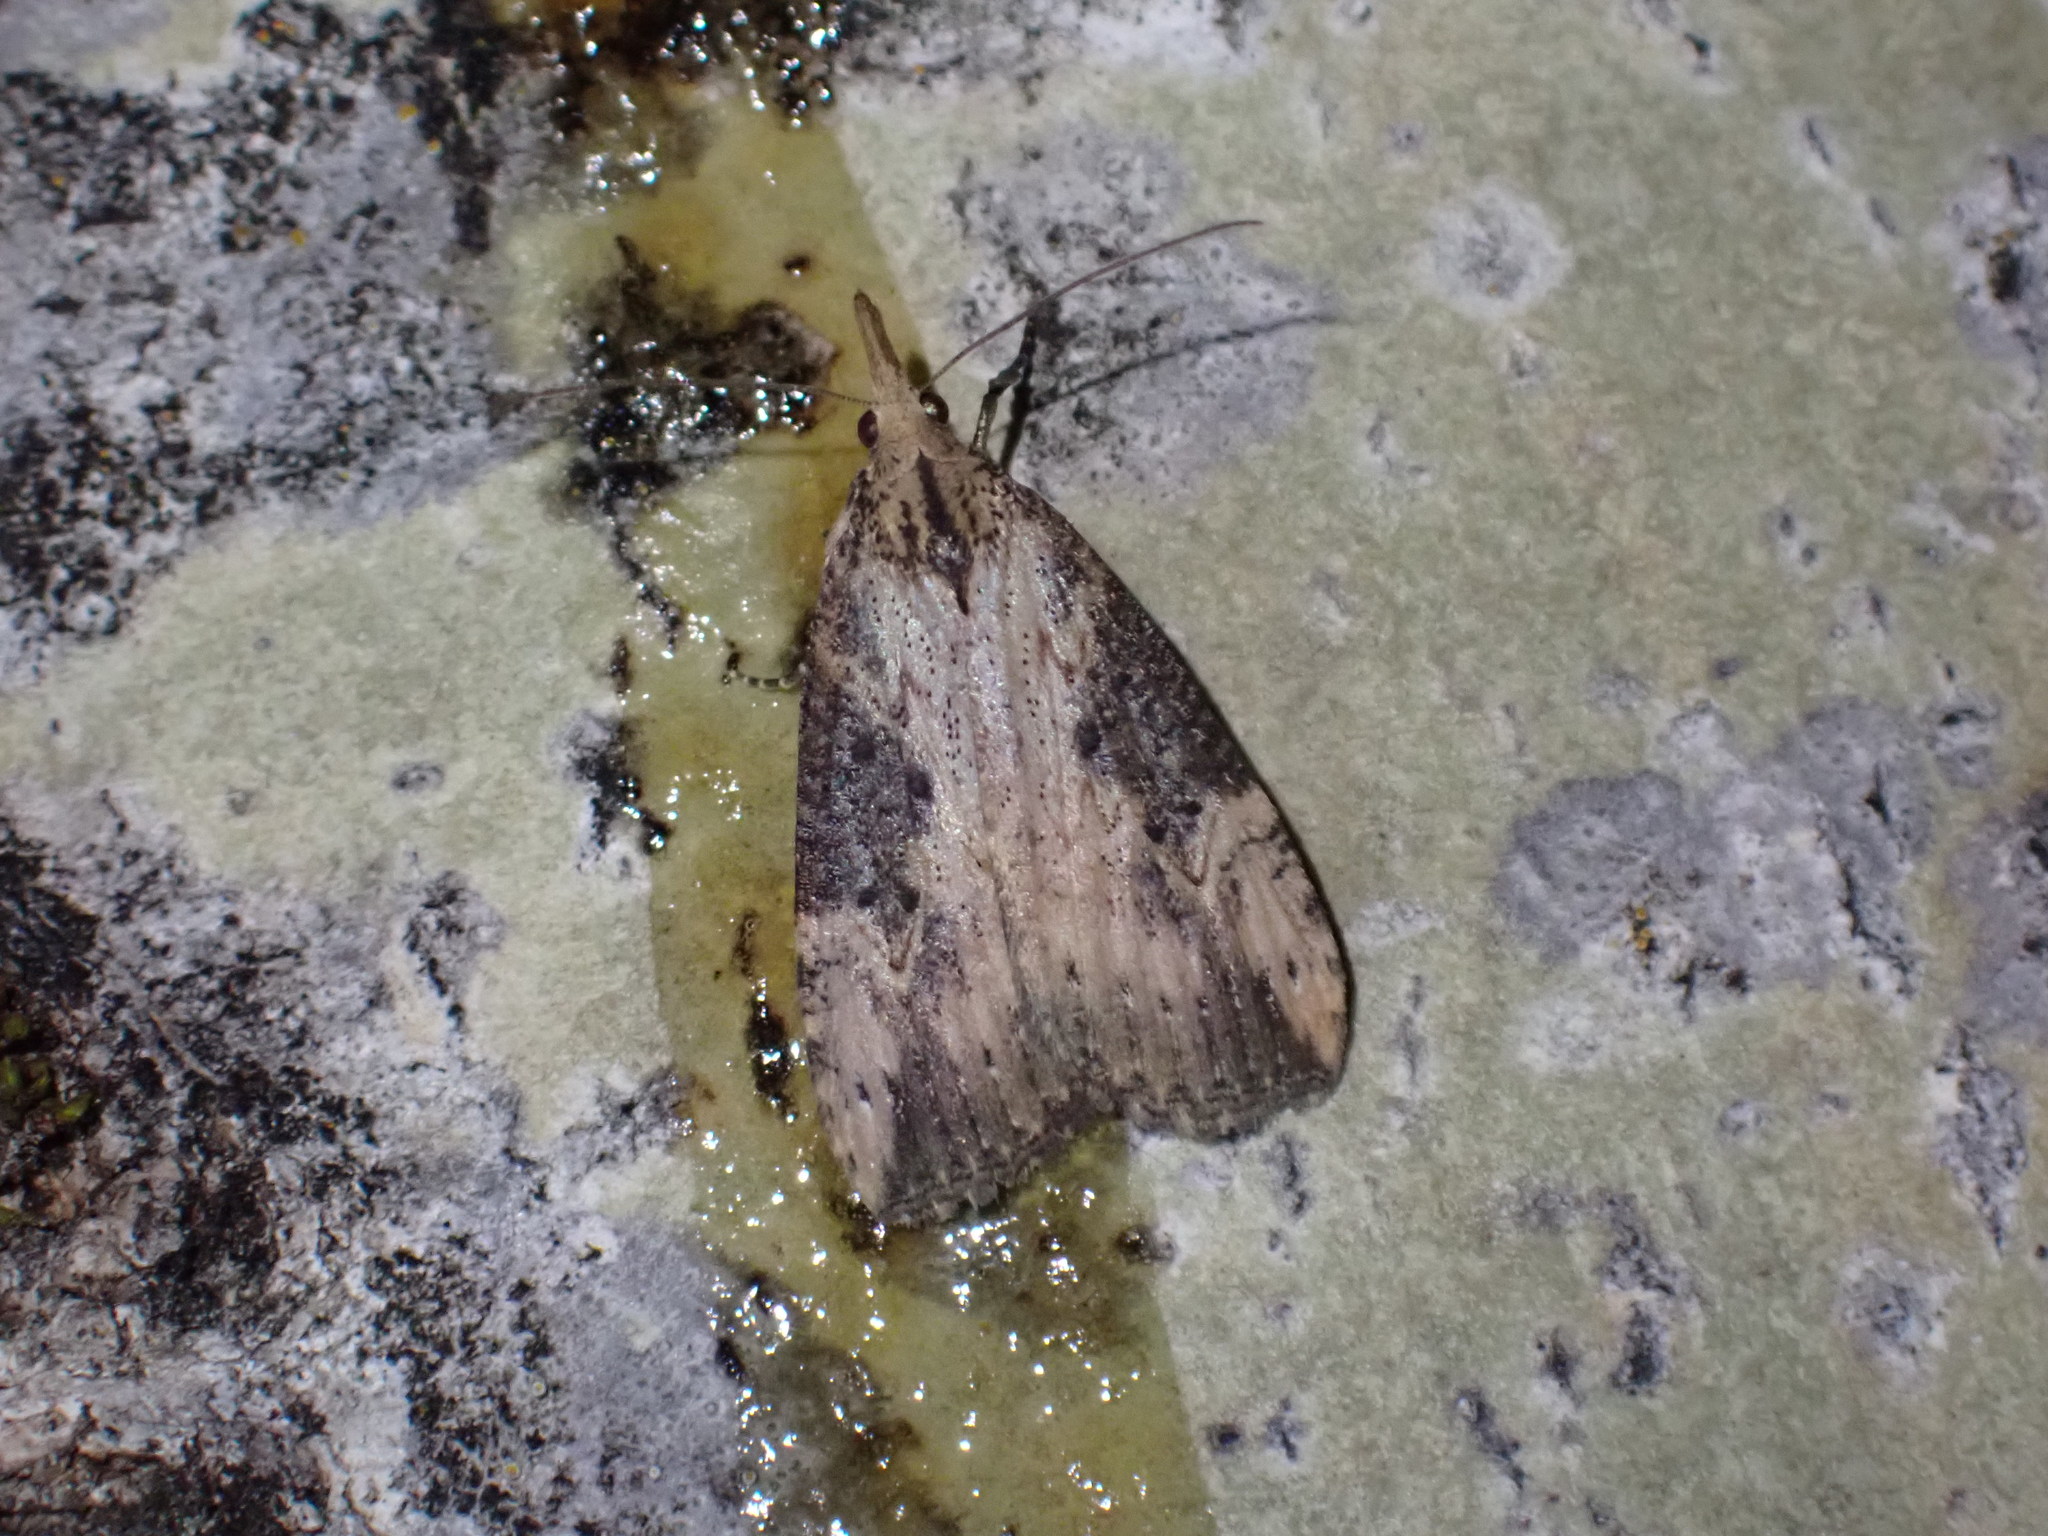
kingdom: Animalia
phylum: Arthropoda
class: Insecta
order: Lepidoptera
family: Erebidae
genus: Hypena
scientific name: Hypena humuli
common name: Hop vine snout
